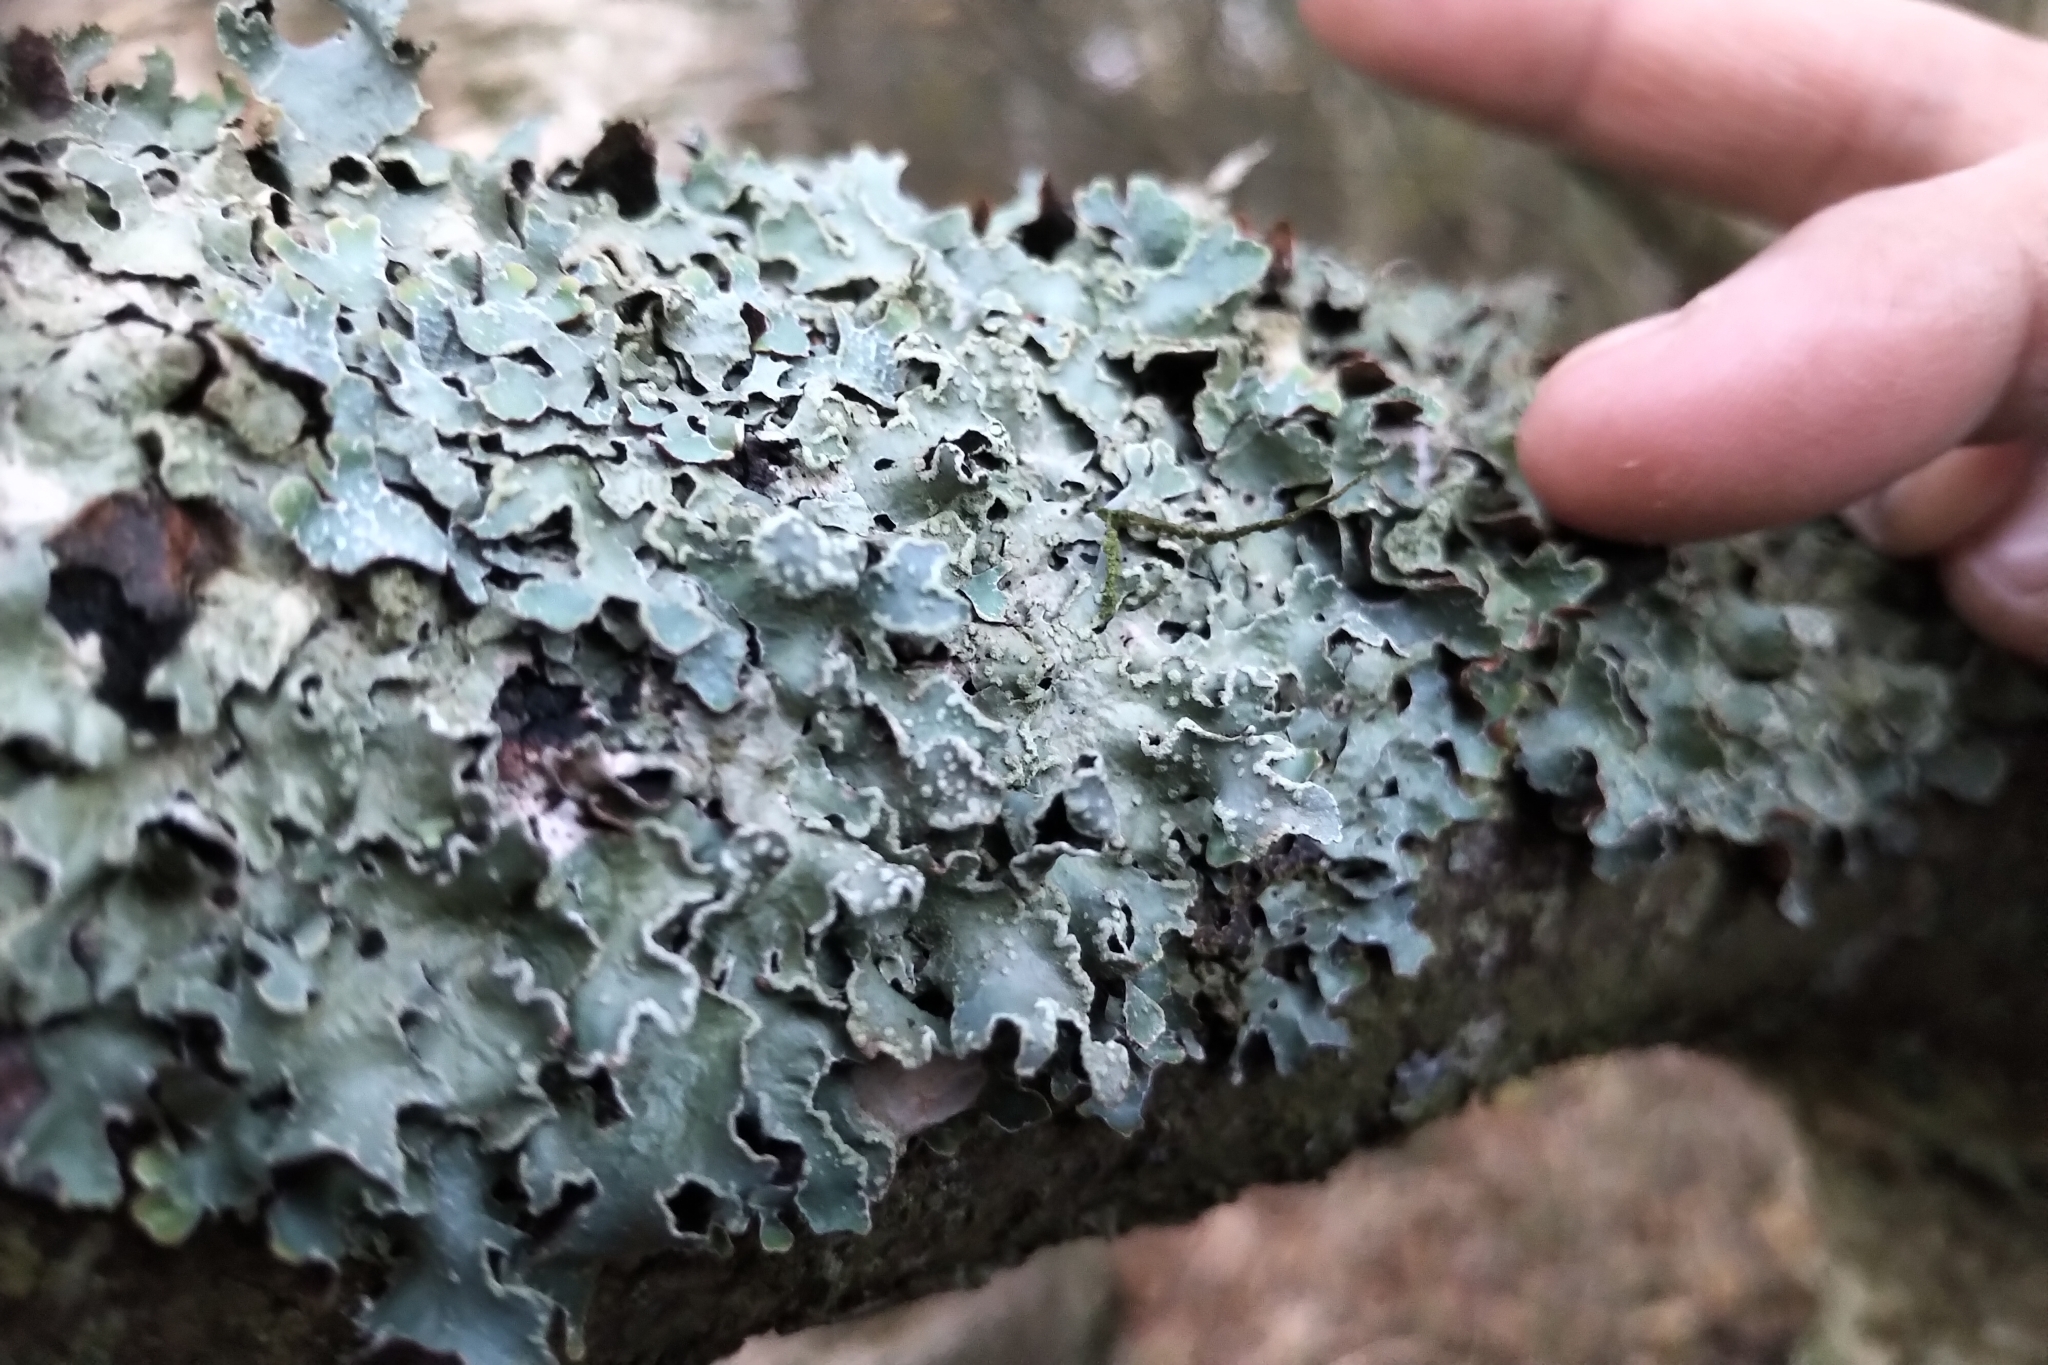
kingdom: Fungi
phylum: Ascomycota
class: Lecanoromycetes
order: Lecanorales
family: Parmeliaceae
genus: Parmelia
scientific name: Parmelia sulcata
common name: Netted shield lichen
